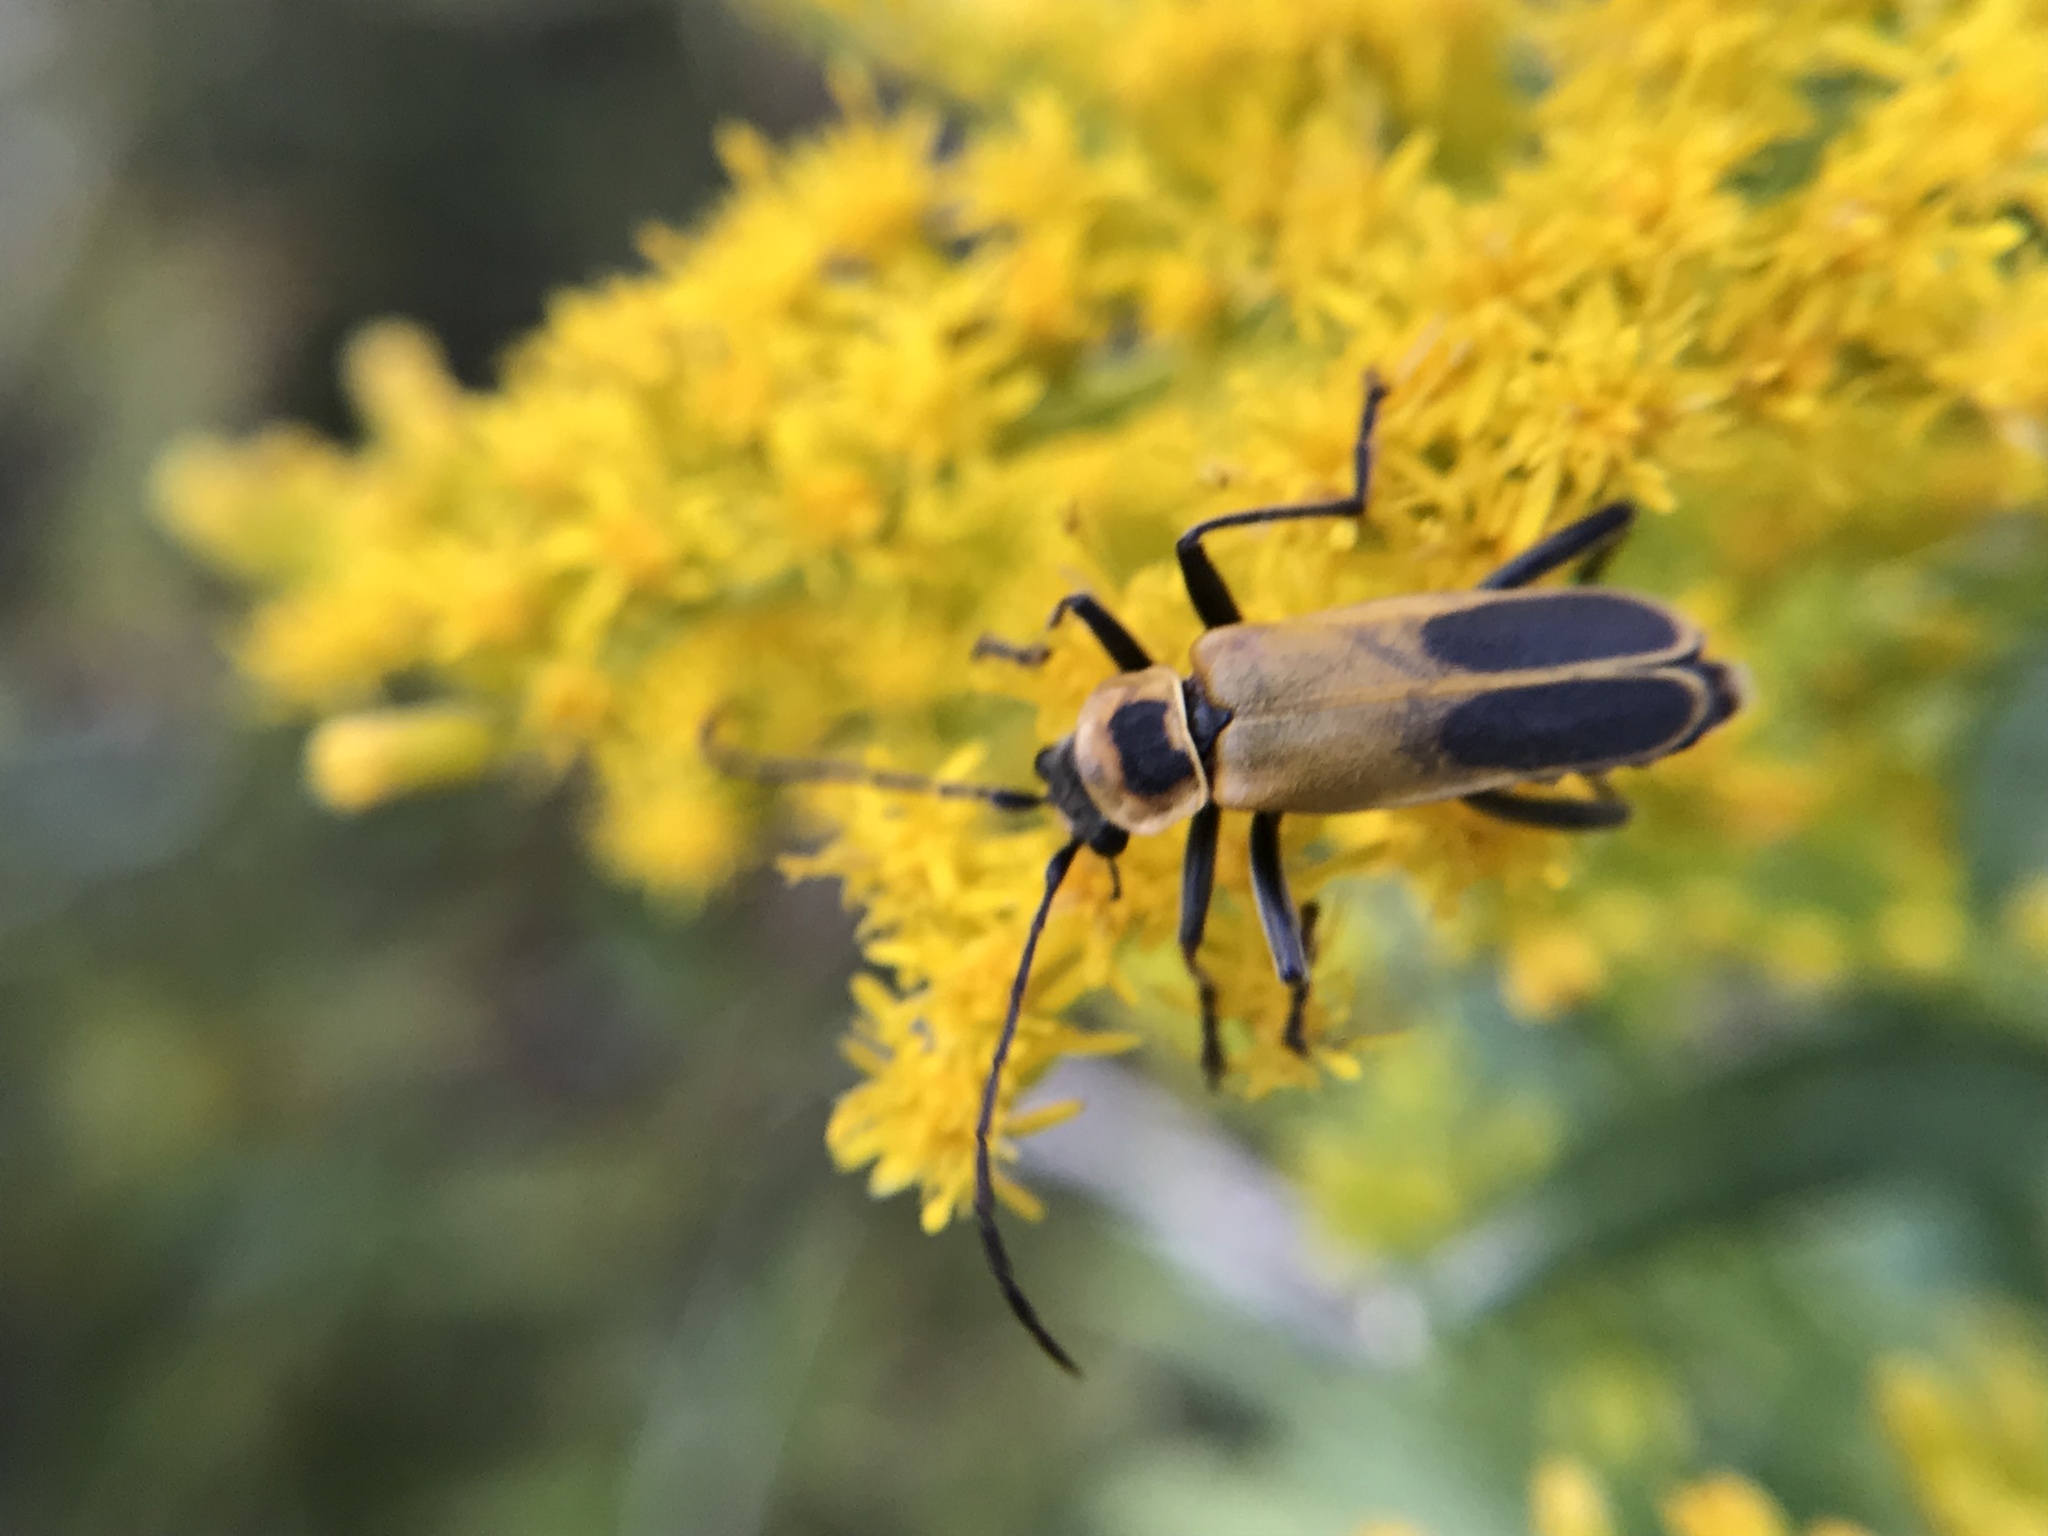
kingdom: Animalia
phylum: Arthropoda
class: Insecta
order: Coleoptera
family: Cantharidae
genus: Chauliognathus
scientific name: Chauliognathus pensylvanicus
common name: Goldenrod soldier beetle
